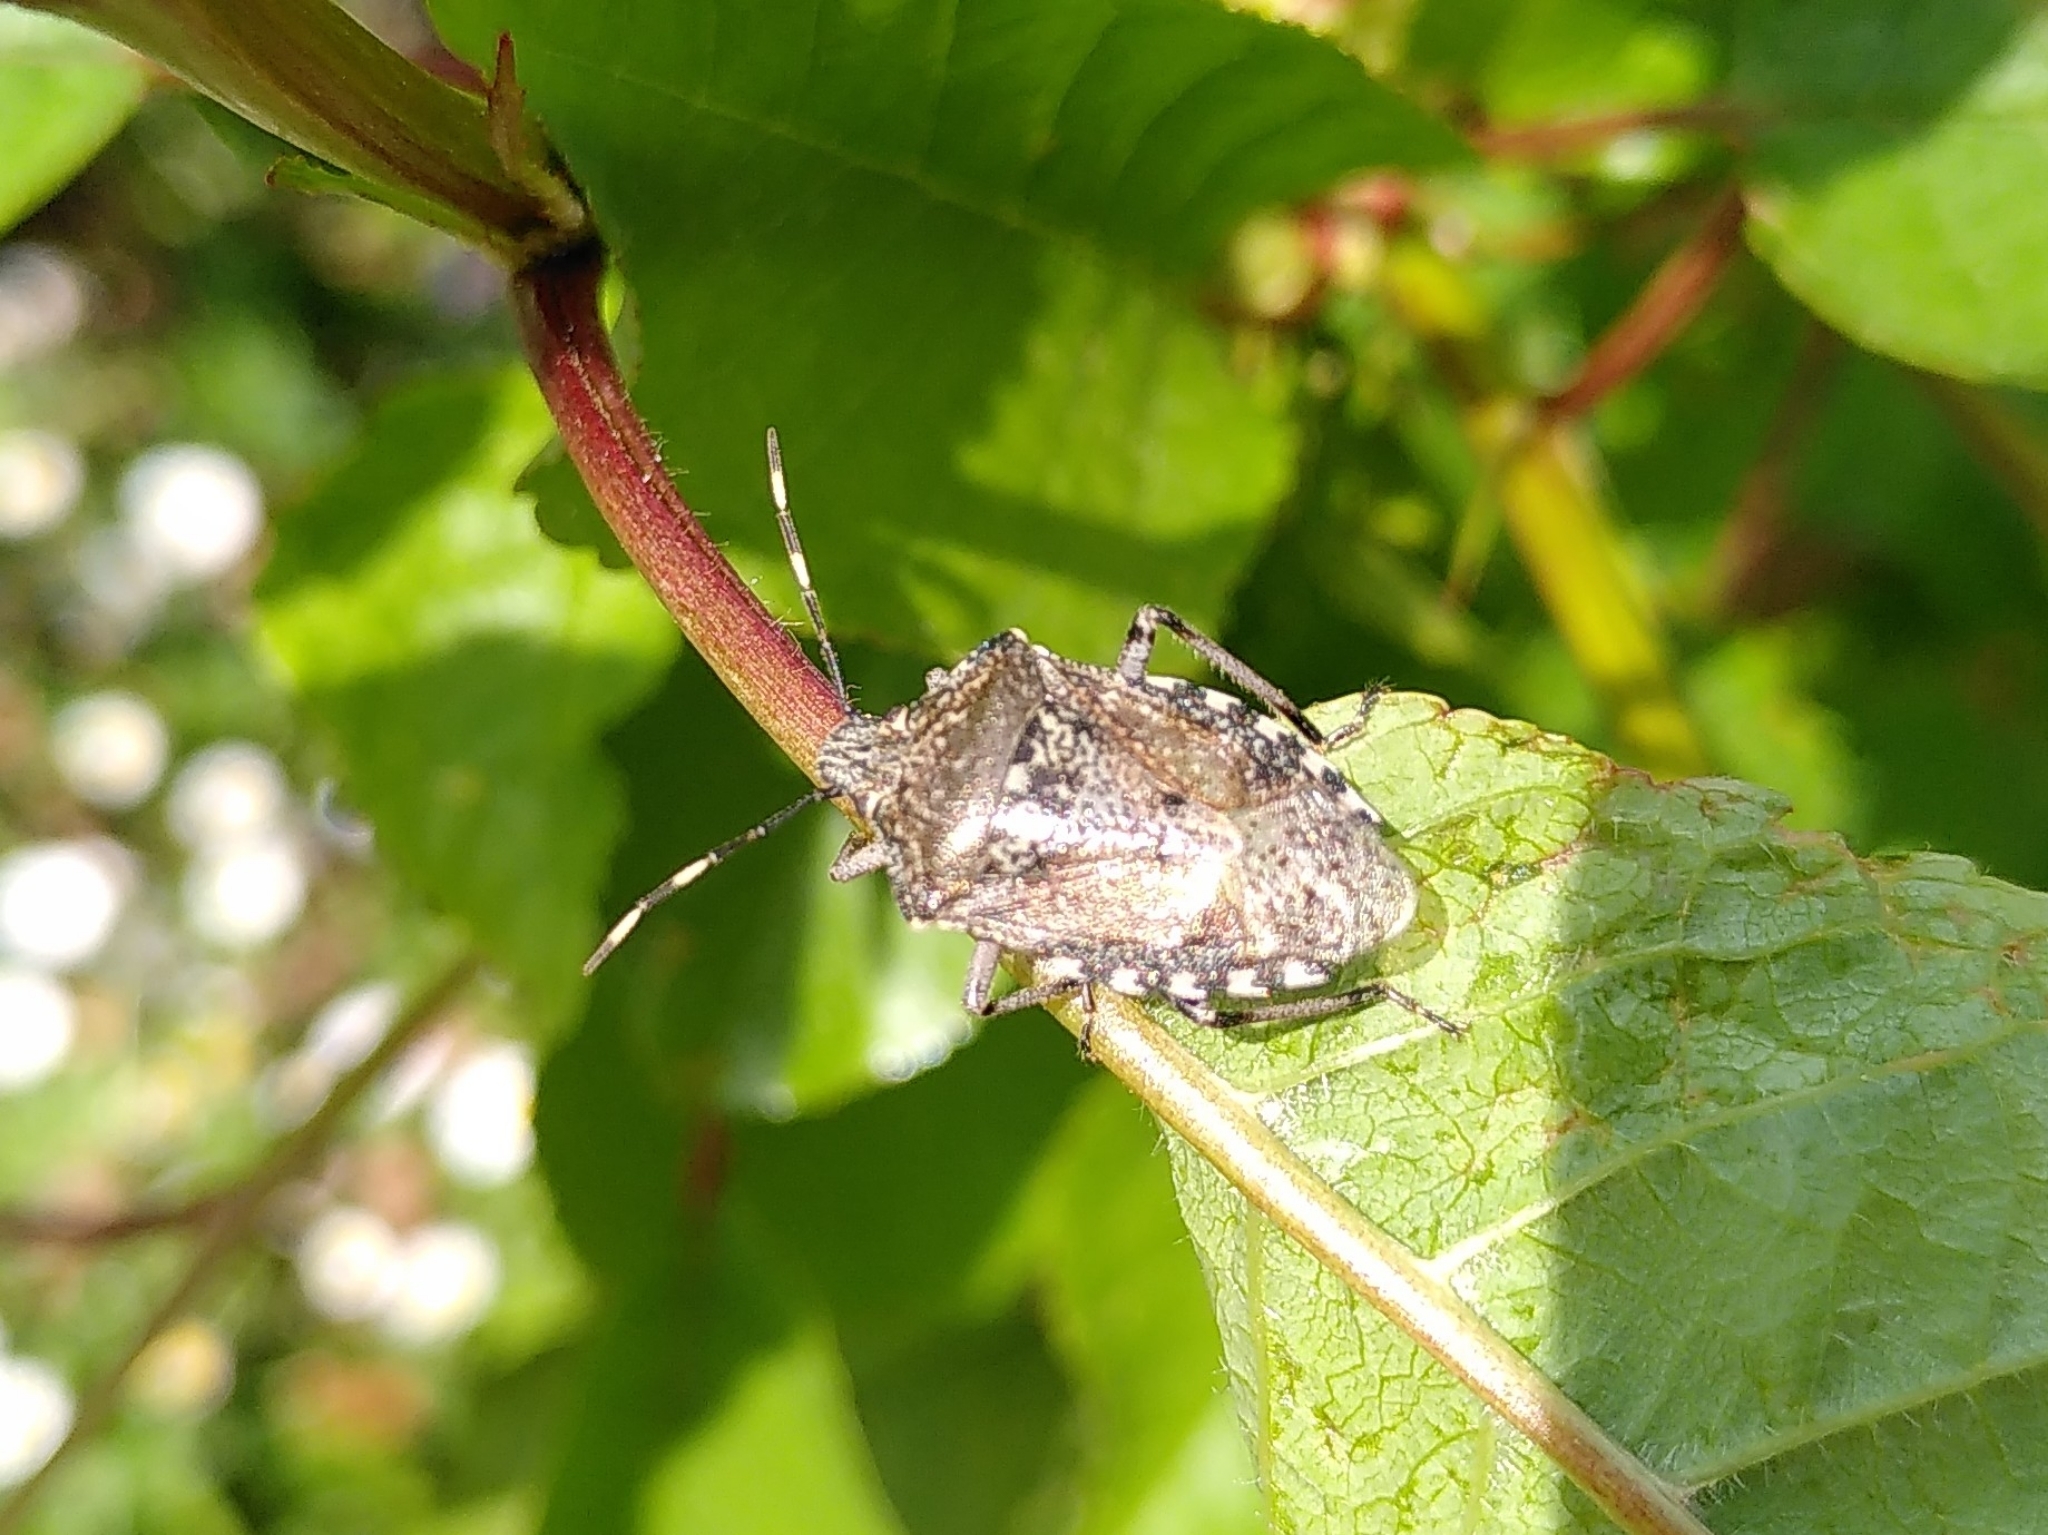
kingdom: Animalia
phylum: Arthropoda
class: Insecta
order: Hemiptera
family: Pentatomidae
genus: Rhaphigaster
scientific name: Rhaphigaster nebulosa
